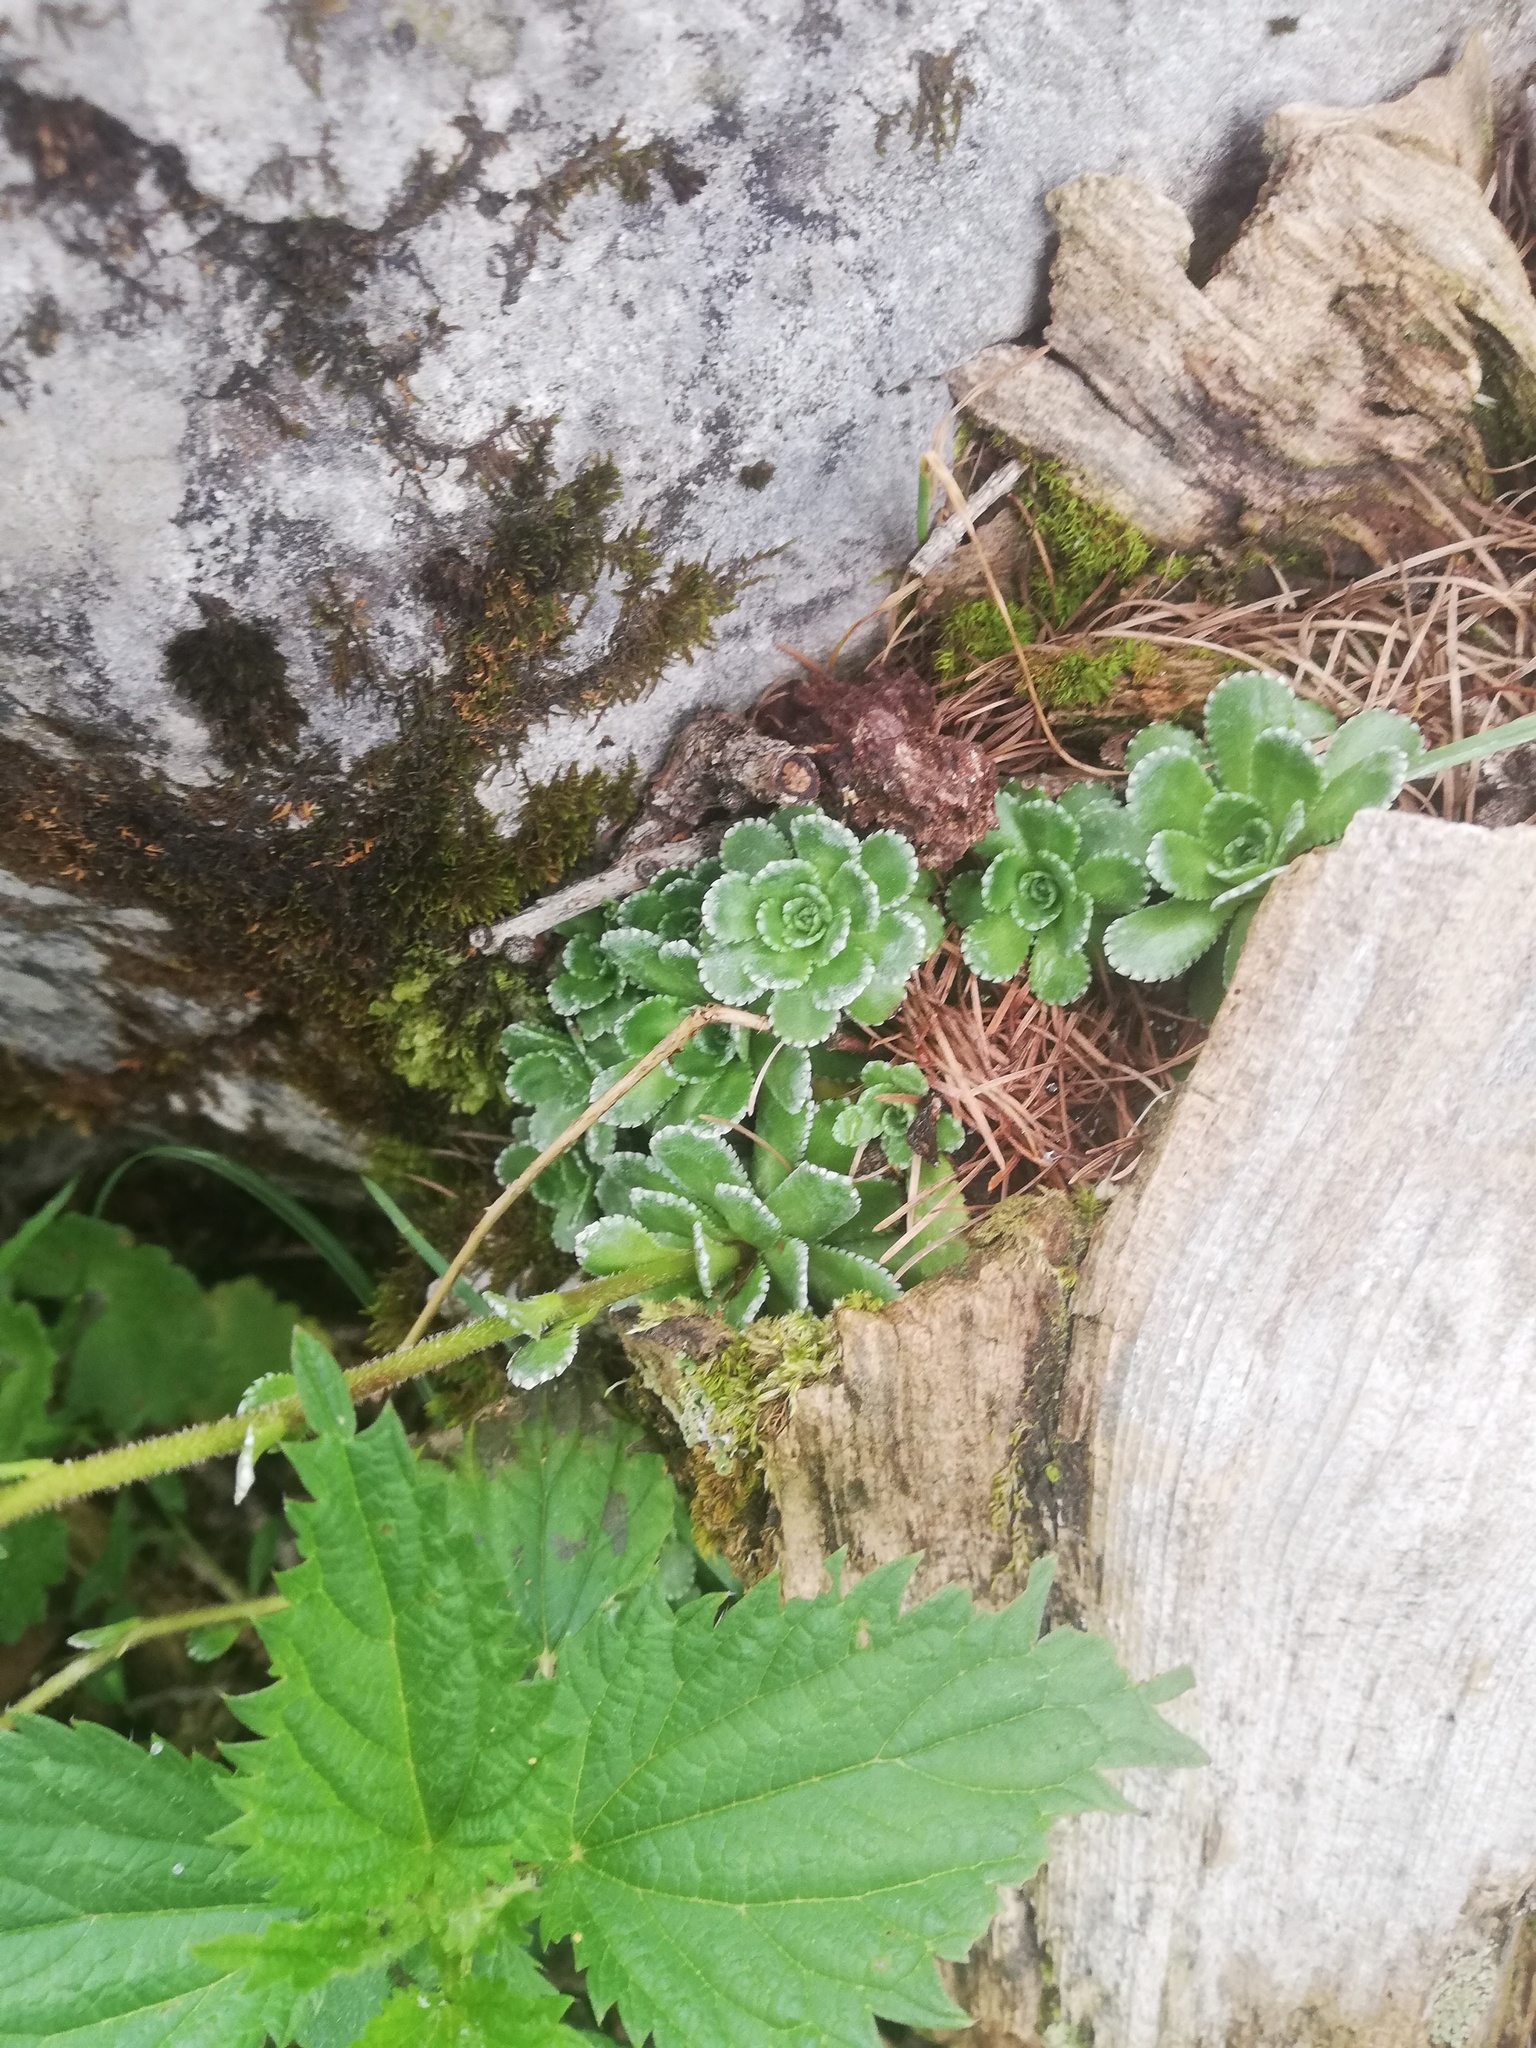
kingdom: Plantae
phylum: Tracheophyta
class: Magnoliopsida
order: Saxifragales
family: Saxifragaceae
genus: Saxifraga
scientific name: Saxifraga paniculata
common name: Livelong saxifrage
